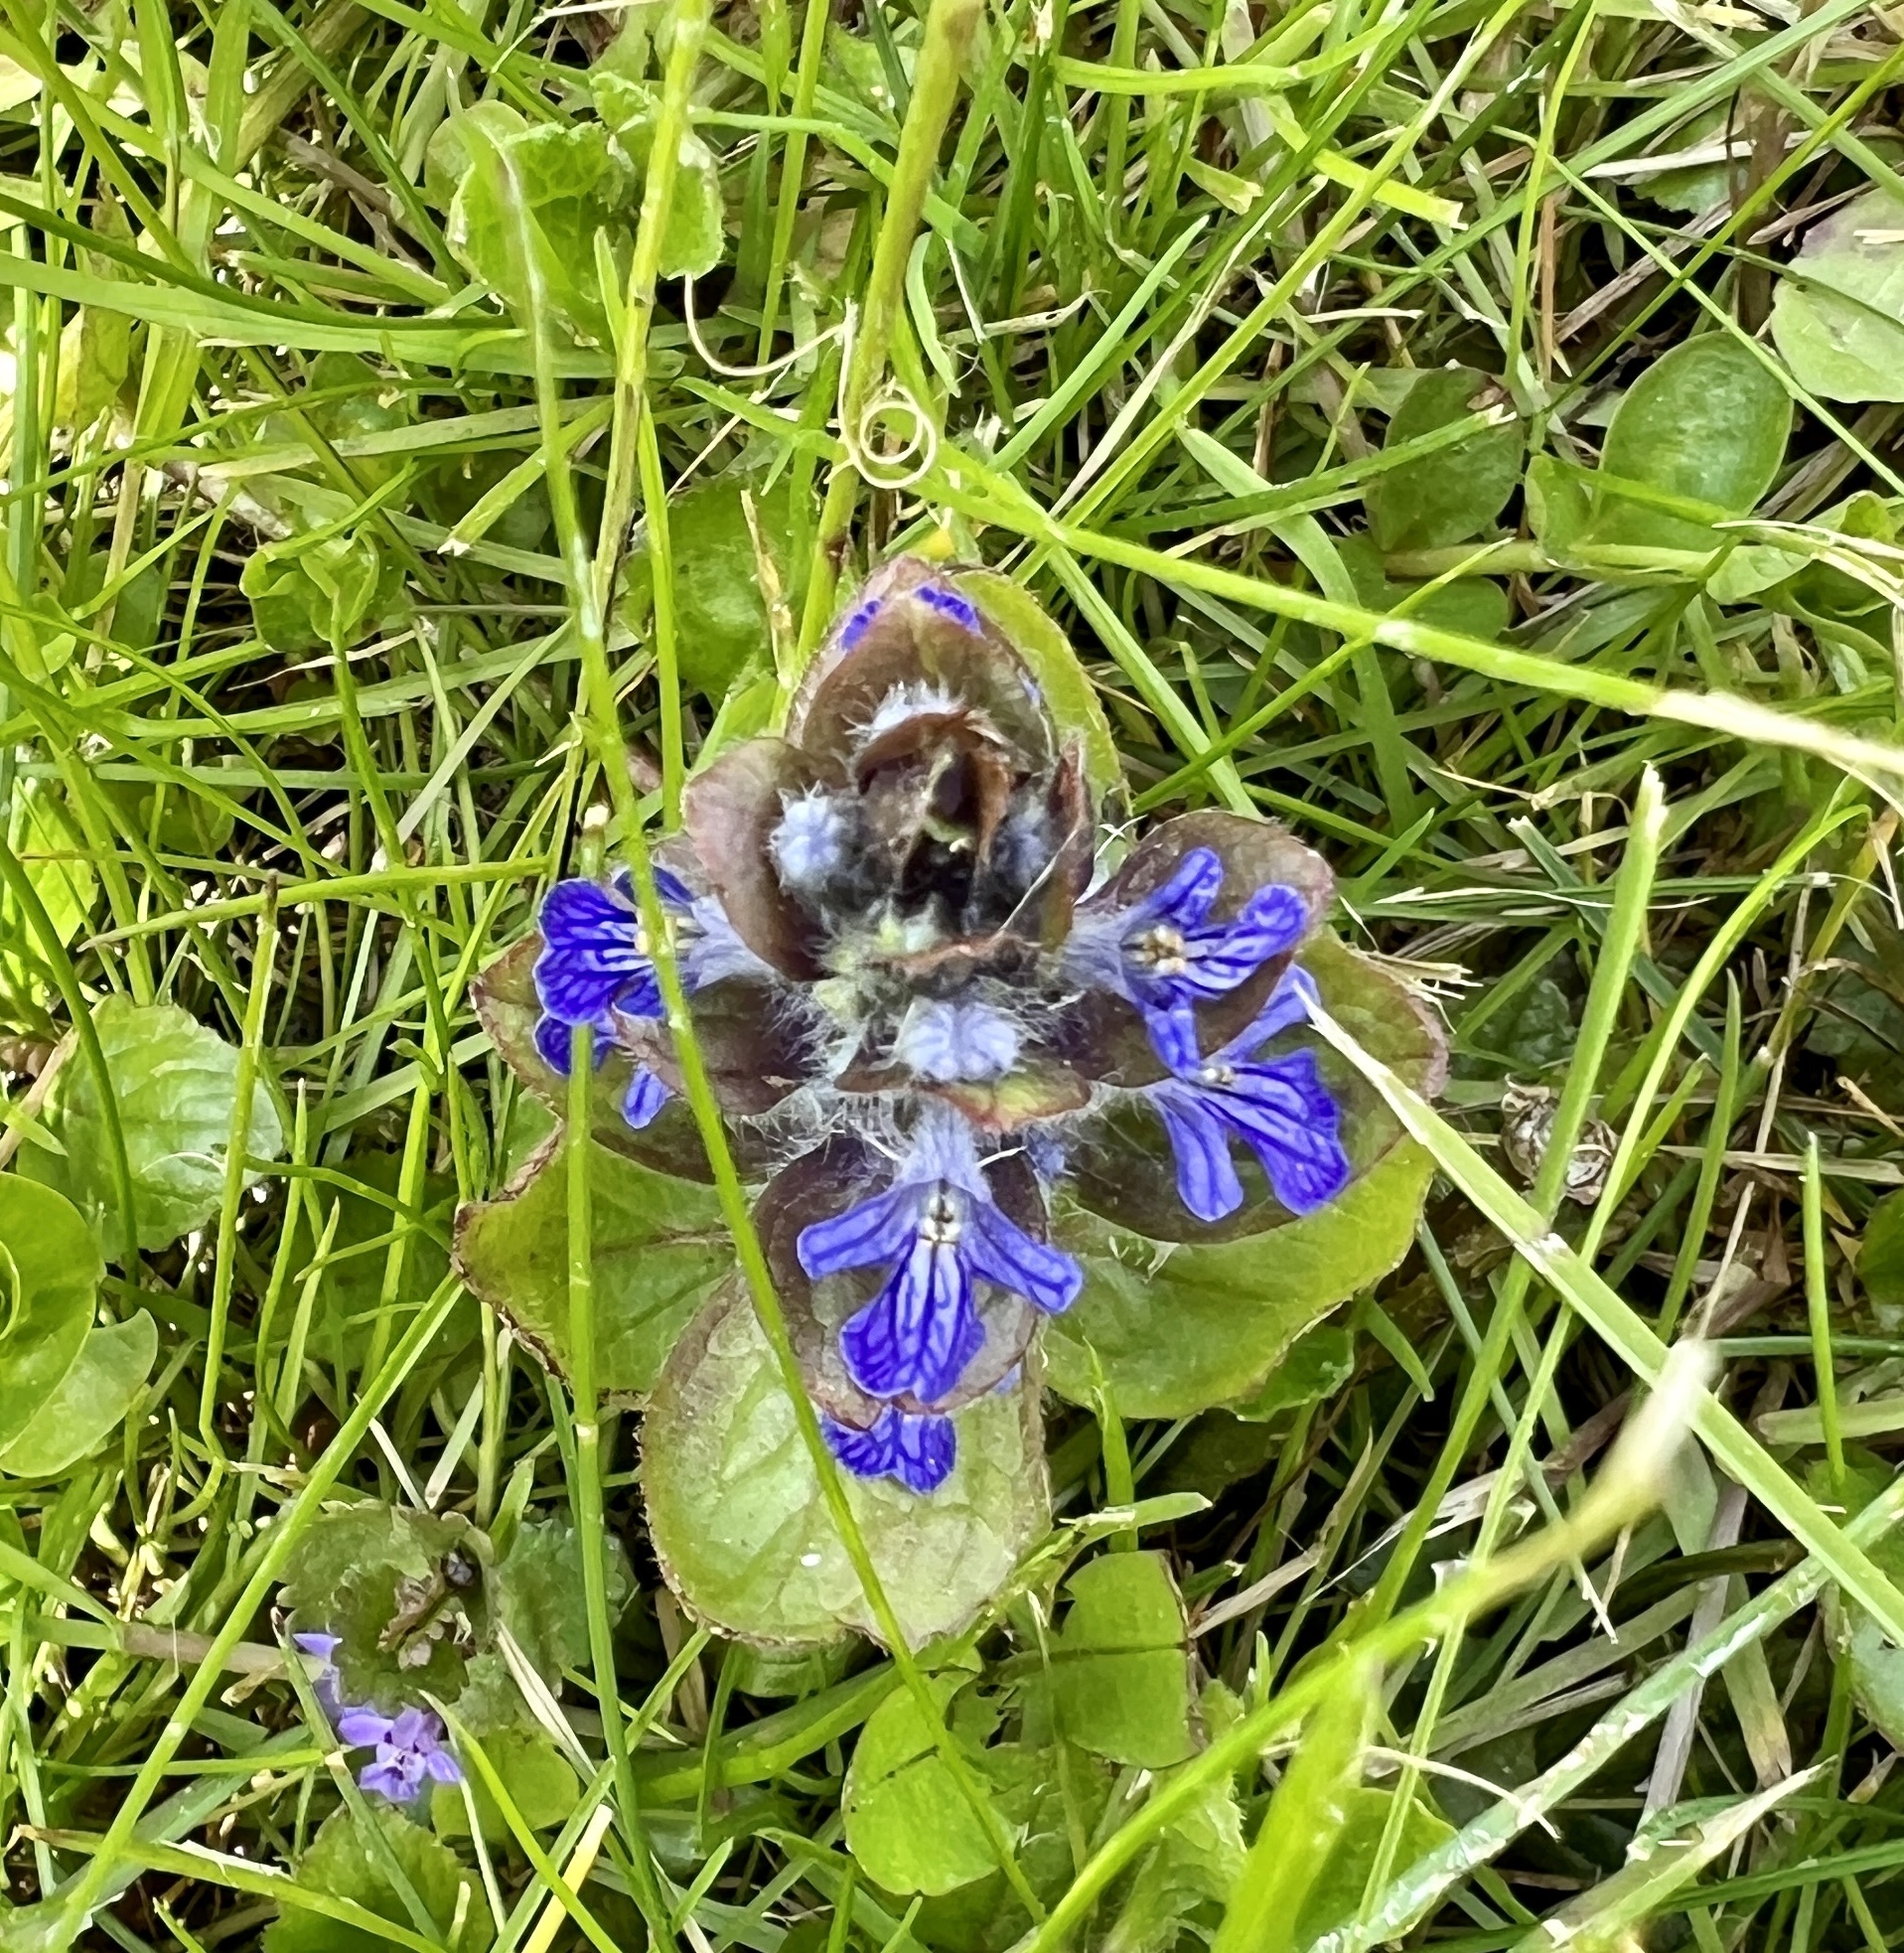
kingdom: Plantae
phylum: Tracheophyta
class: Magnoliopsida
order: Lamiales
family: Lamiaceae
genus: Ajuga
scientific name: Ajuga reptans
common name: Bugle
